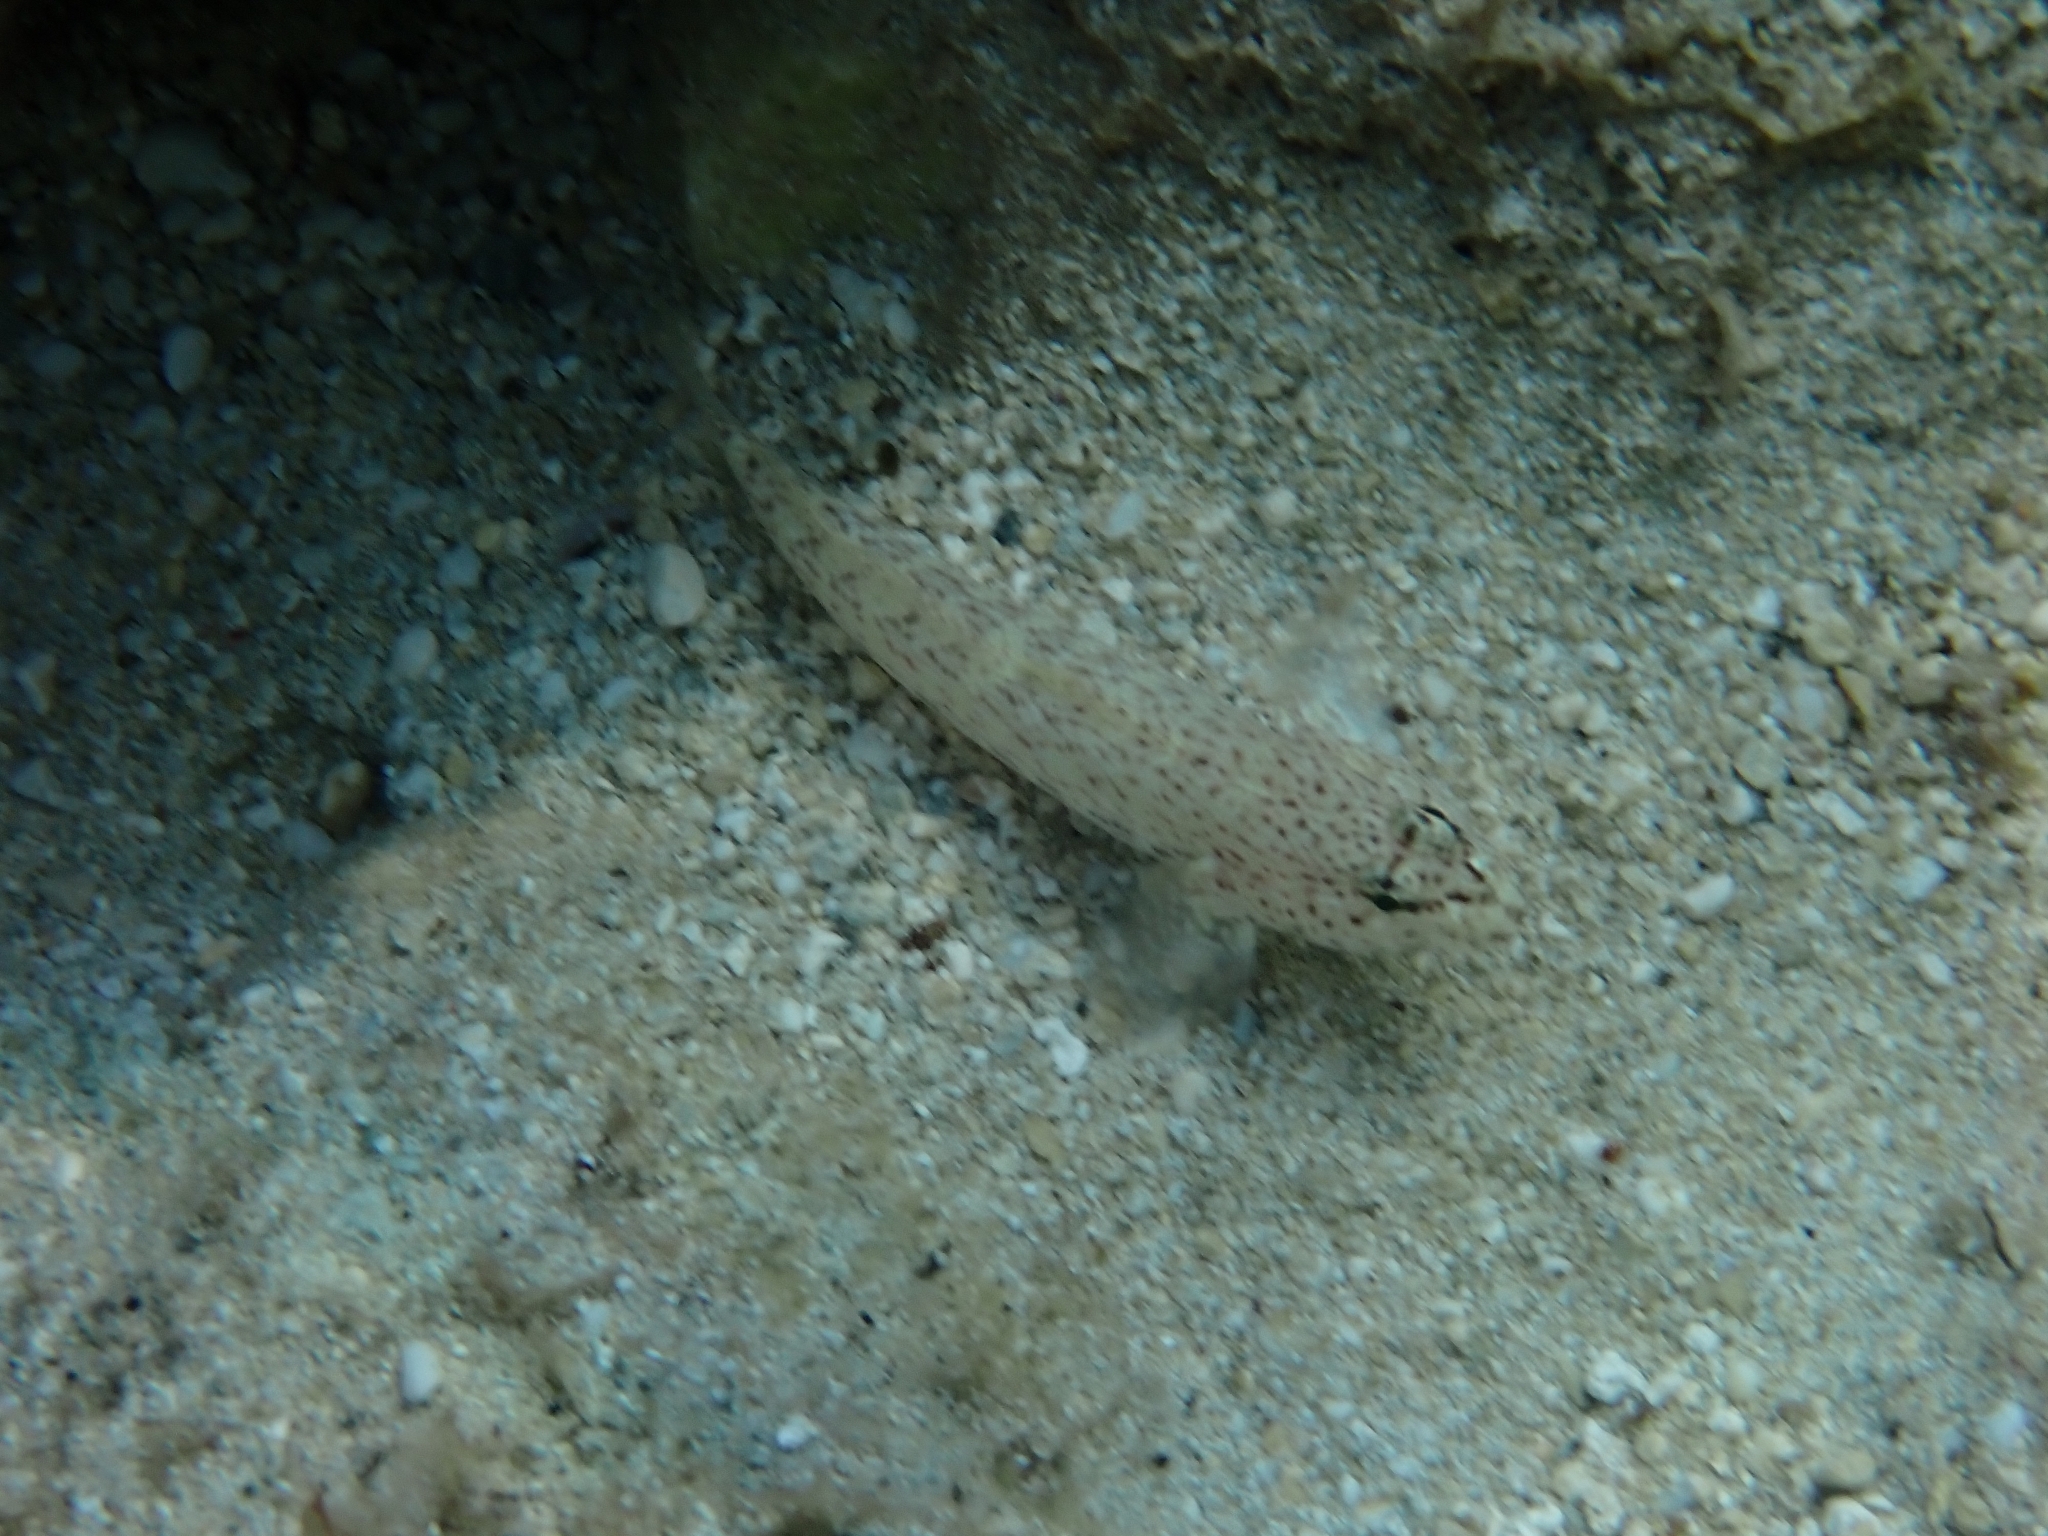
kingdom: Animalia
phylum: Chordata
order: Perciformes
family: Gobiidae
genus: Gobius
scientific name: Gobius incognitus
